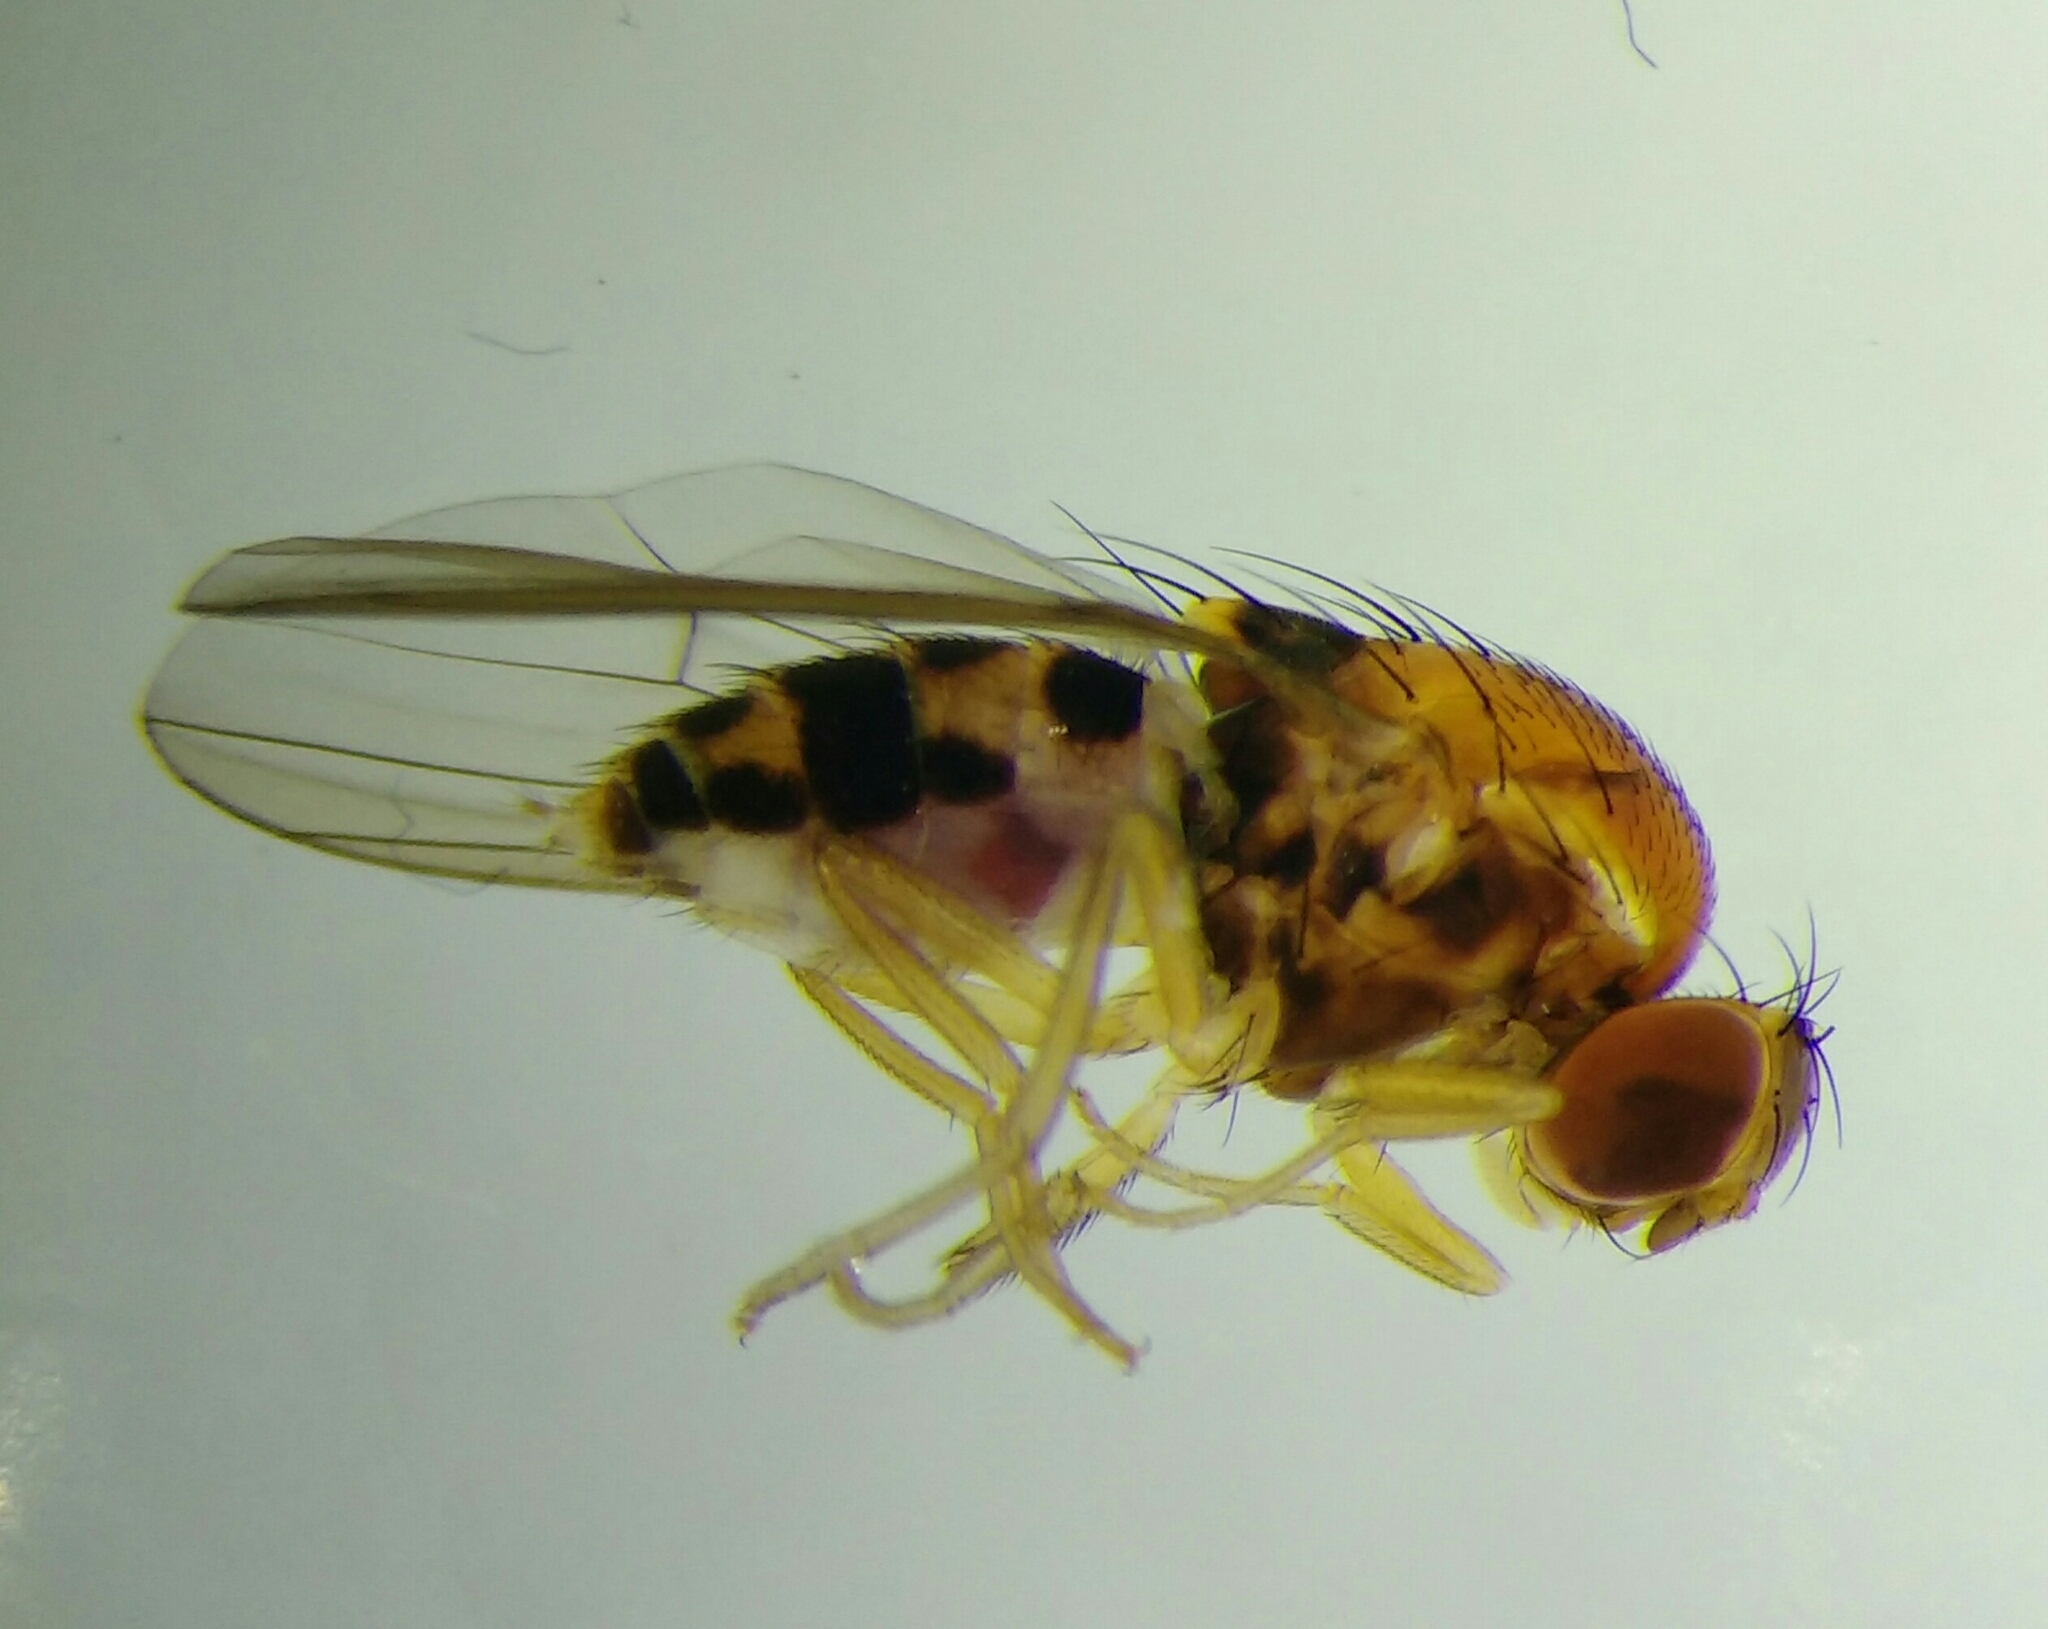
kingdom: Animalia
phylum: Arthropoda
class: Insecta
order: Diptera
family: Drosophilidae
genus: Leucophenga
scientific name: Leucophenga maculata
